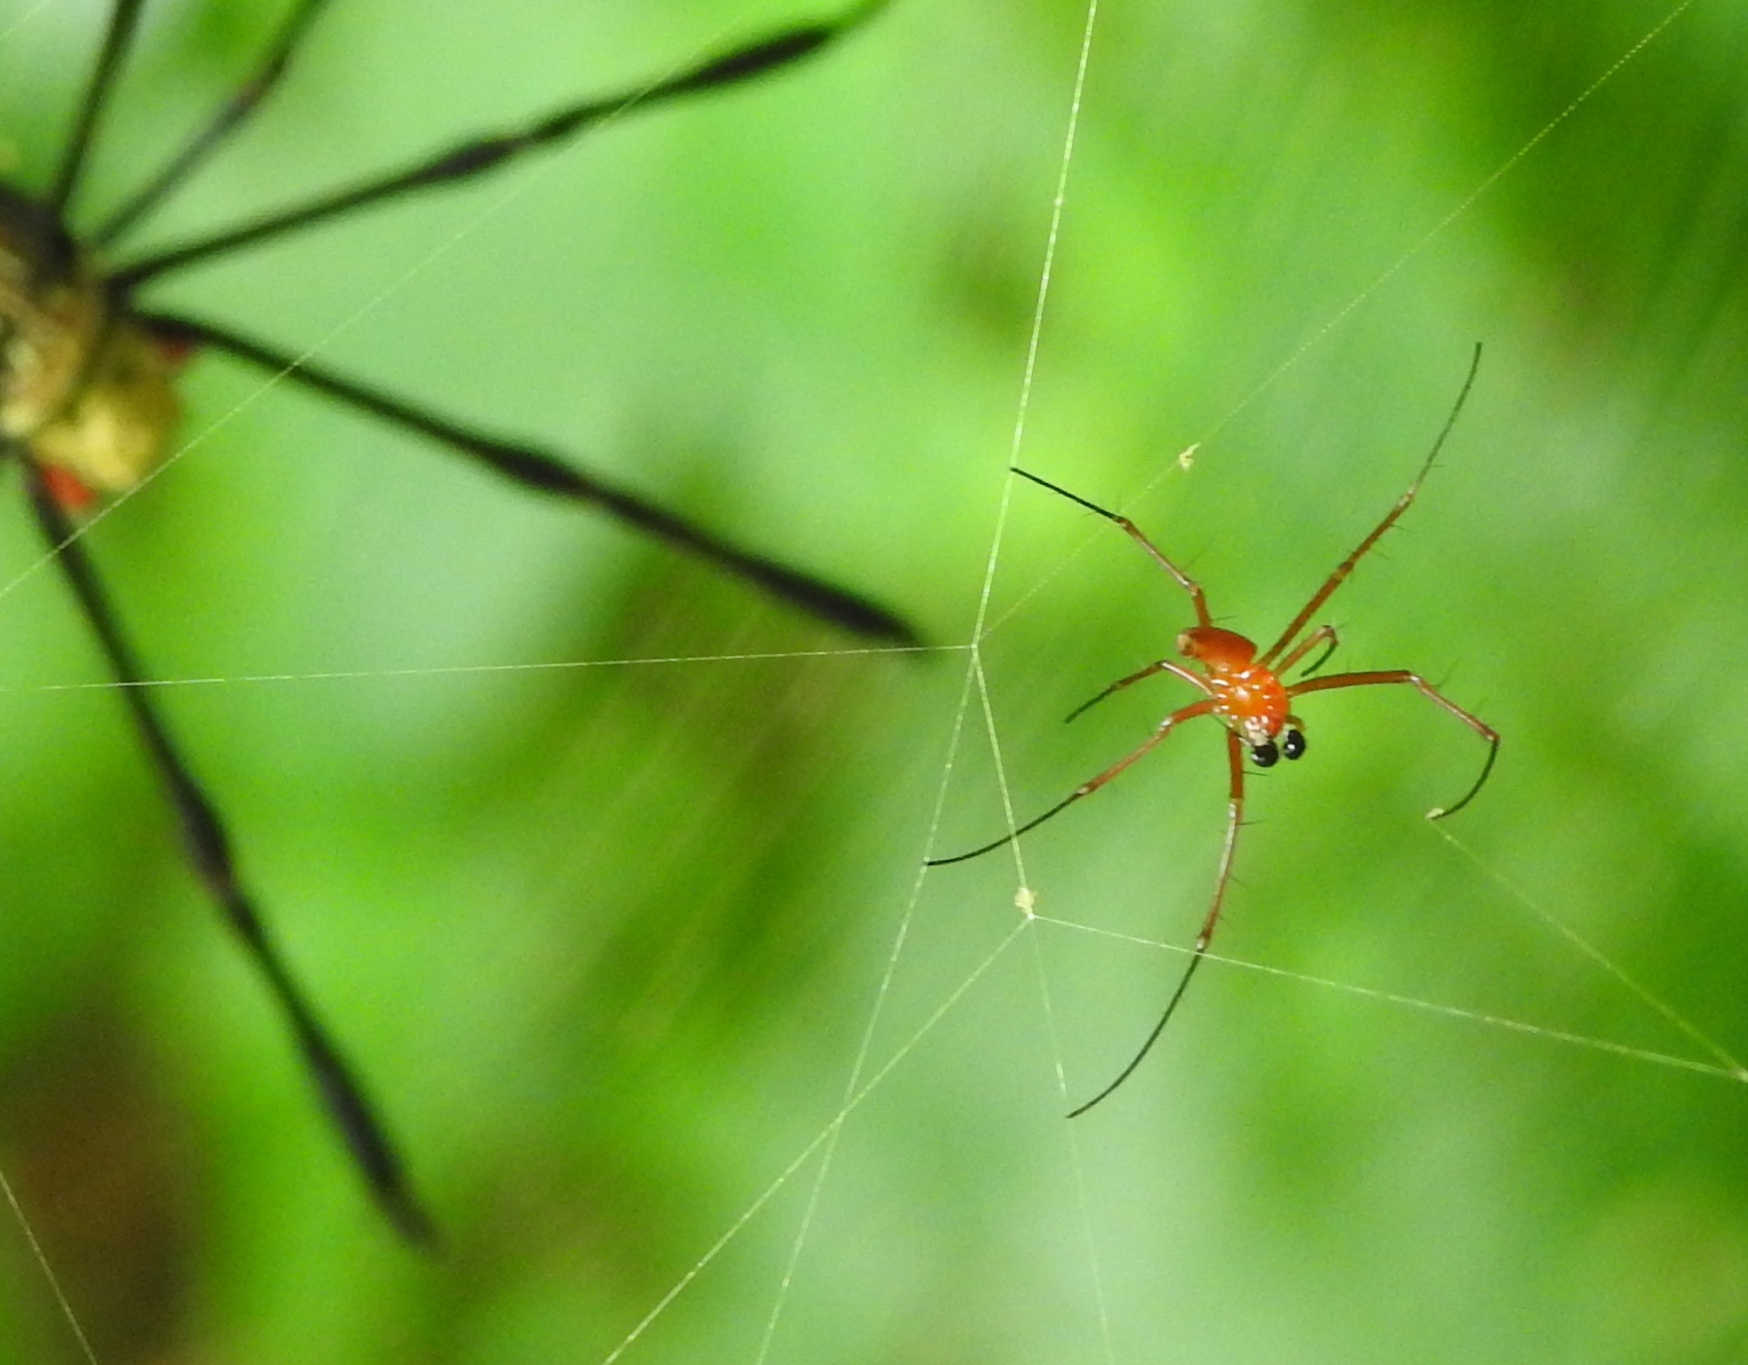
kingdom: Animalia
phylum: Arthropoda
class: Arachnida
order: Araneae
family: Araneidae
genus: Nephila
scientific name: Nephila pilipes
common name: Giant golden orb weaver
